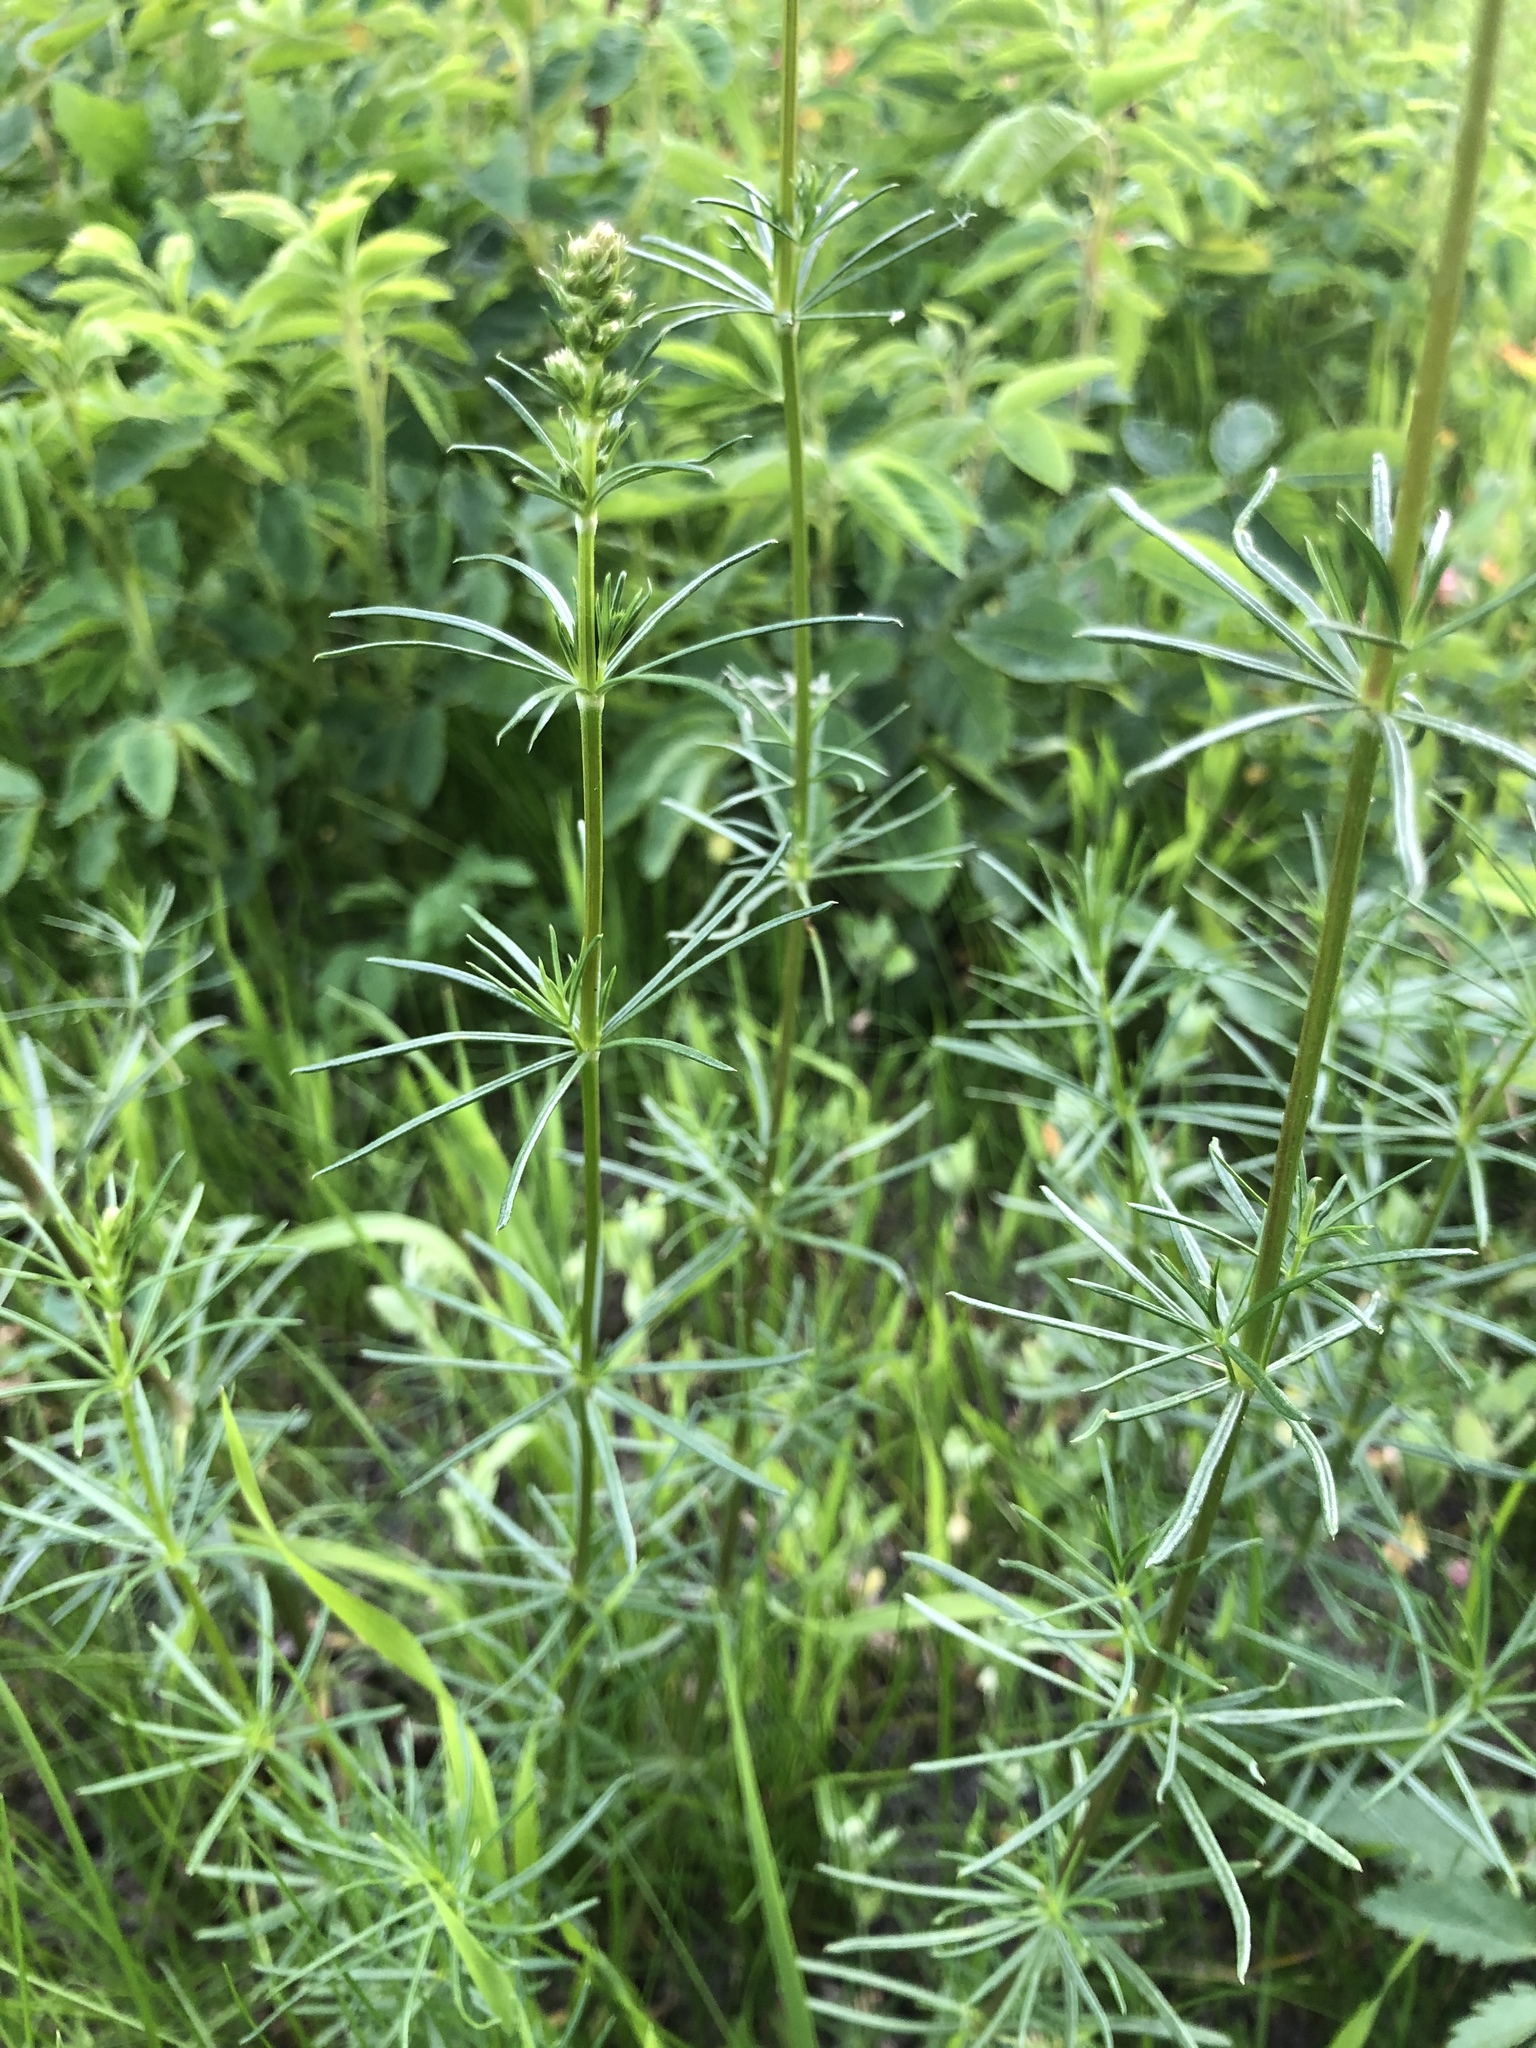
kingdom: Plantae
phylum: Tracheophyta
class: Magnoliopsida
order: Gentianales
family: Rubiaceae
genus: Galium
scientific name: Galium verum
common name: Lady's bedstraw
